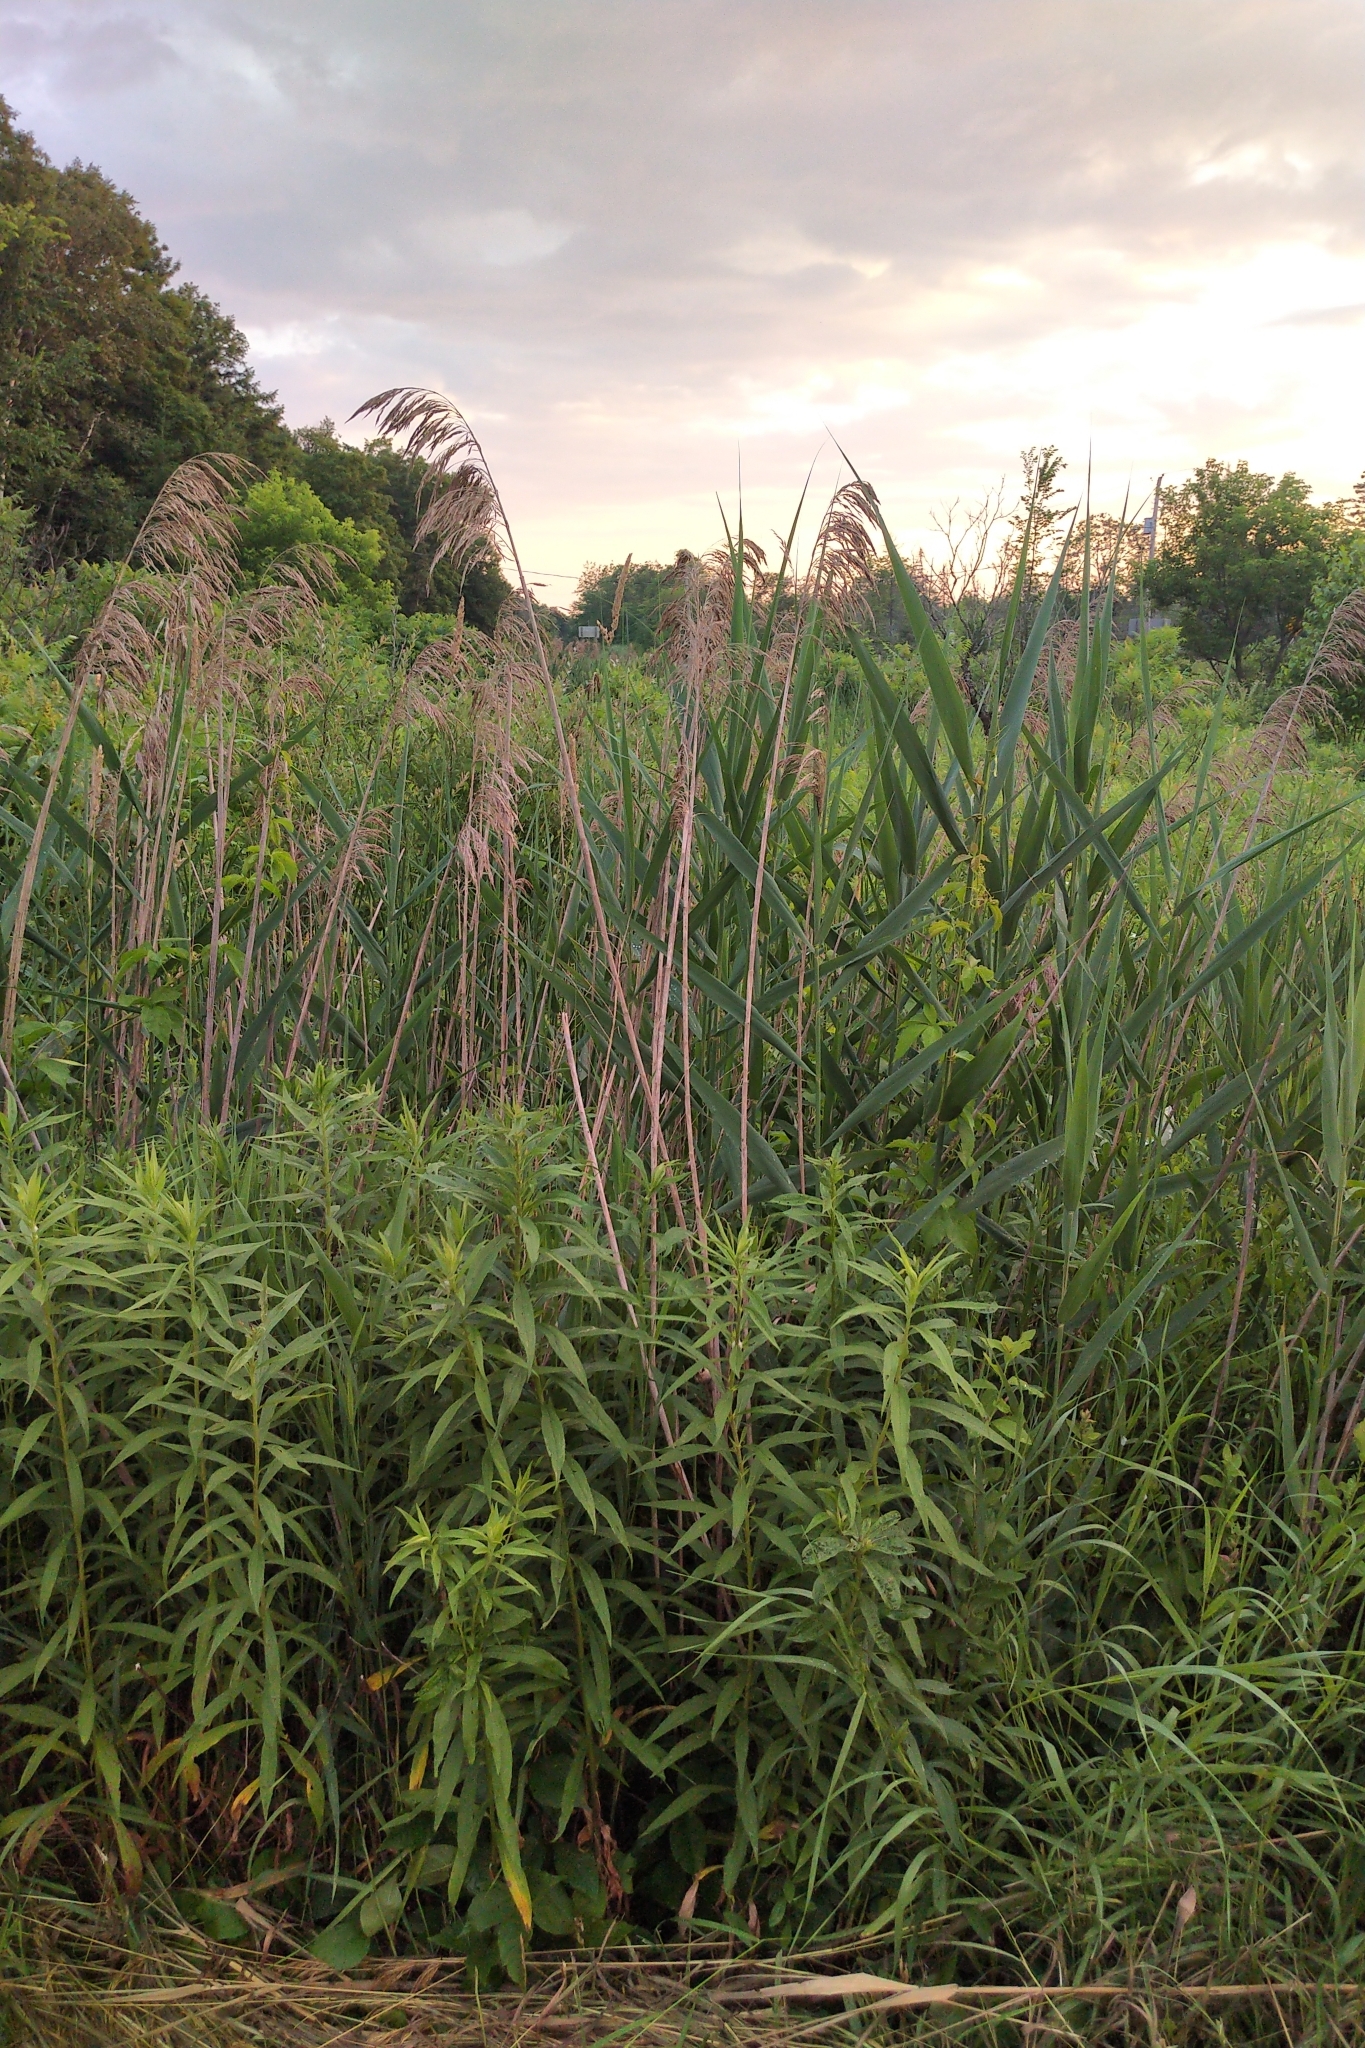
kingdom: Plantae
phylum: Tracheophyta
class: Liliopsida
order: Poales
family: Poaceae
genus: Phragmites
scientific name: Phragmites australis
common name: Common reed
